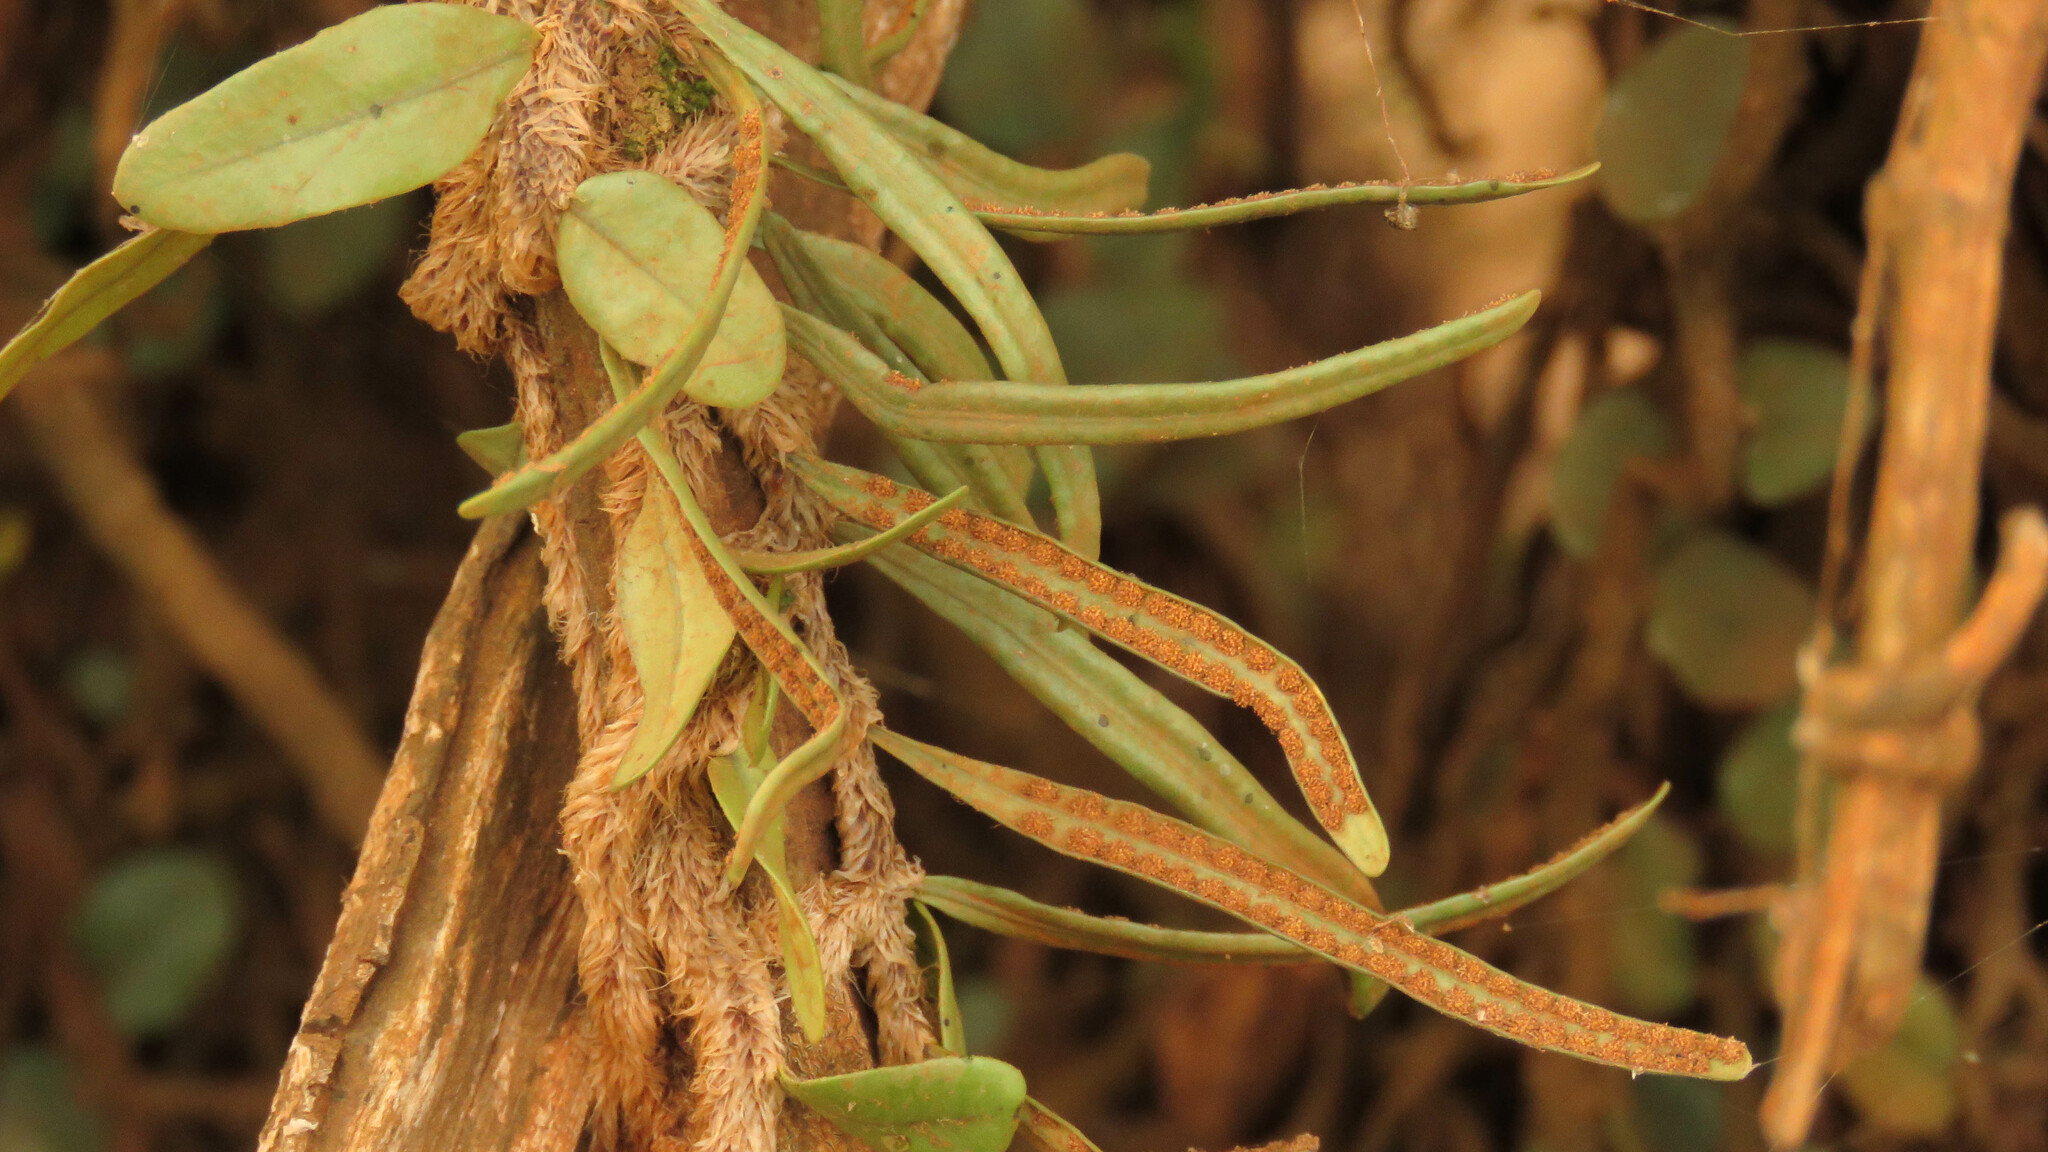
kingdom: Plantae
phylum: Tracheophyta
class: Polypodiopsida
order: Polypodiales
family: Polypodiaceae
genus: Microgramma
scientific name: Microgramma vaccinifolia
